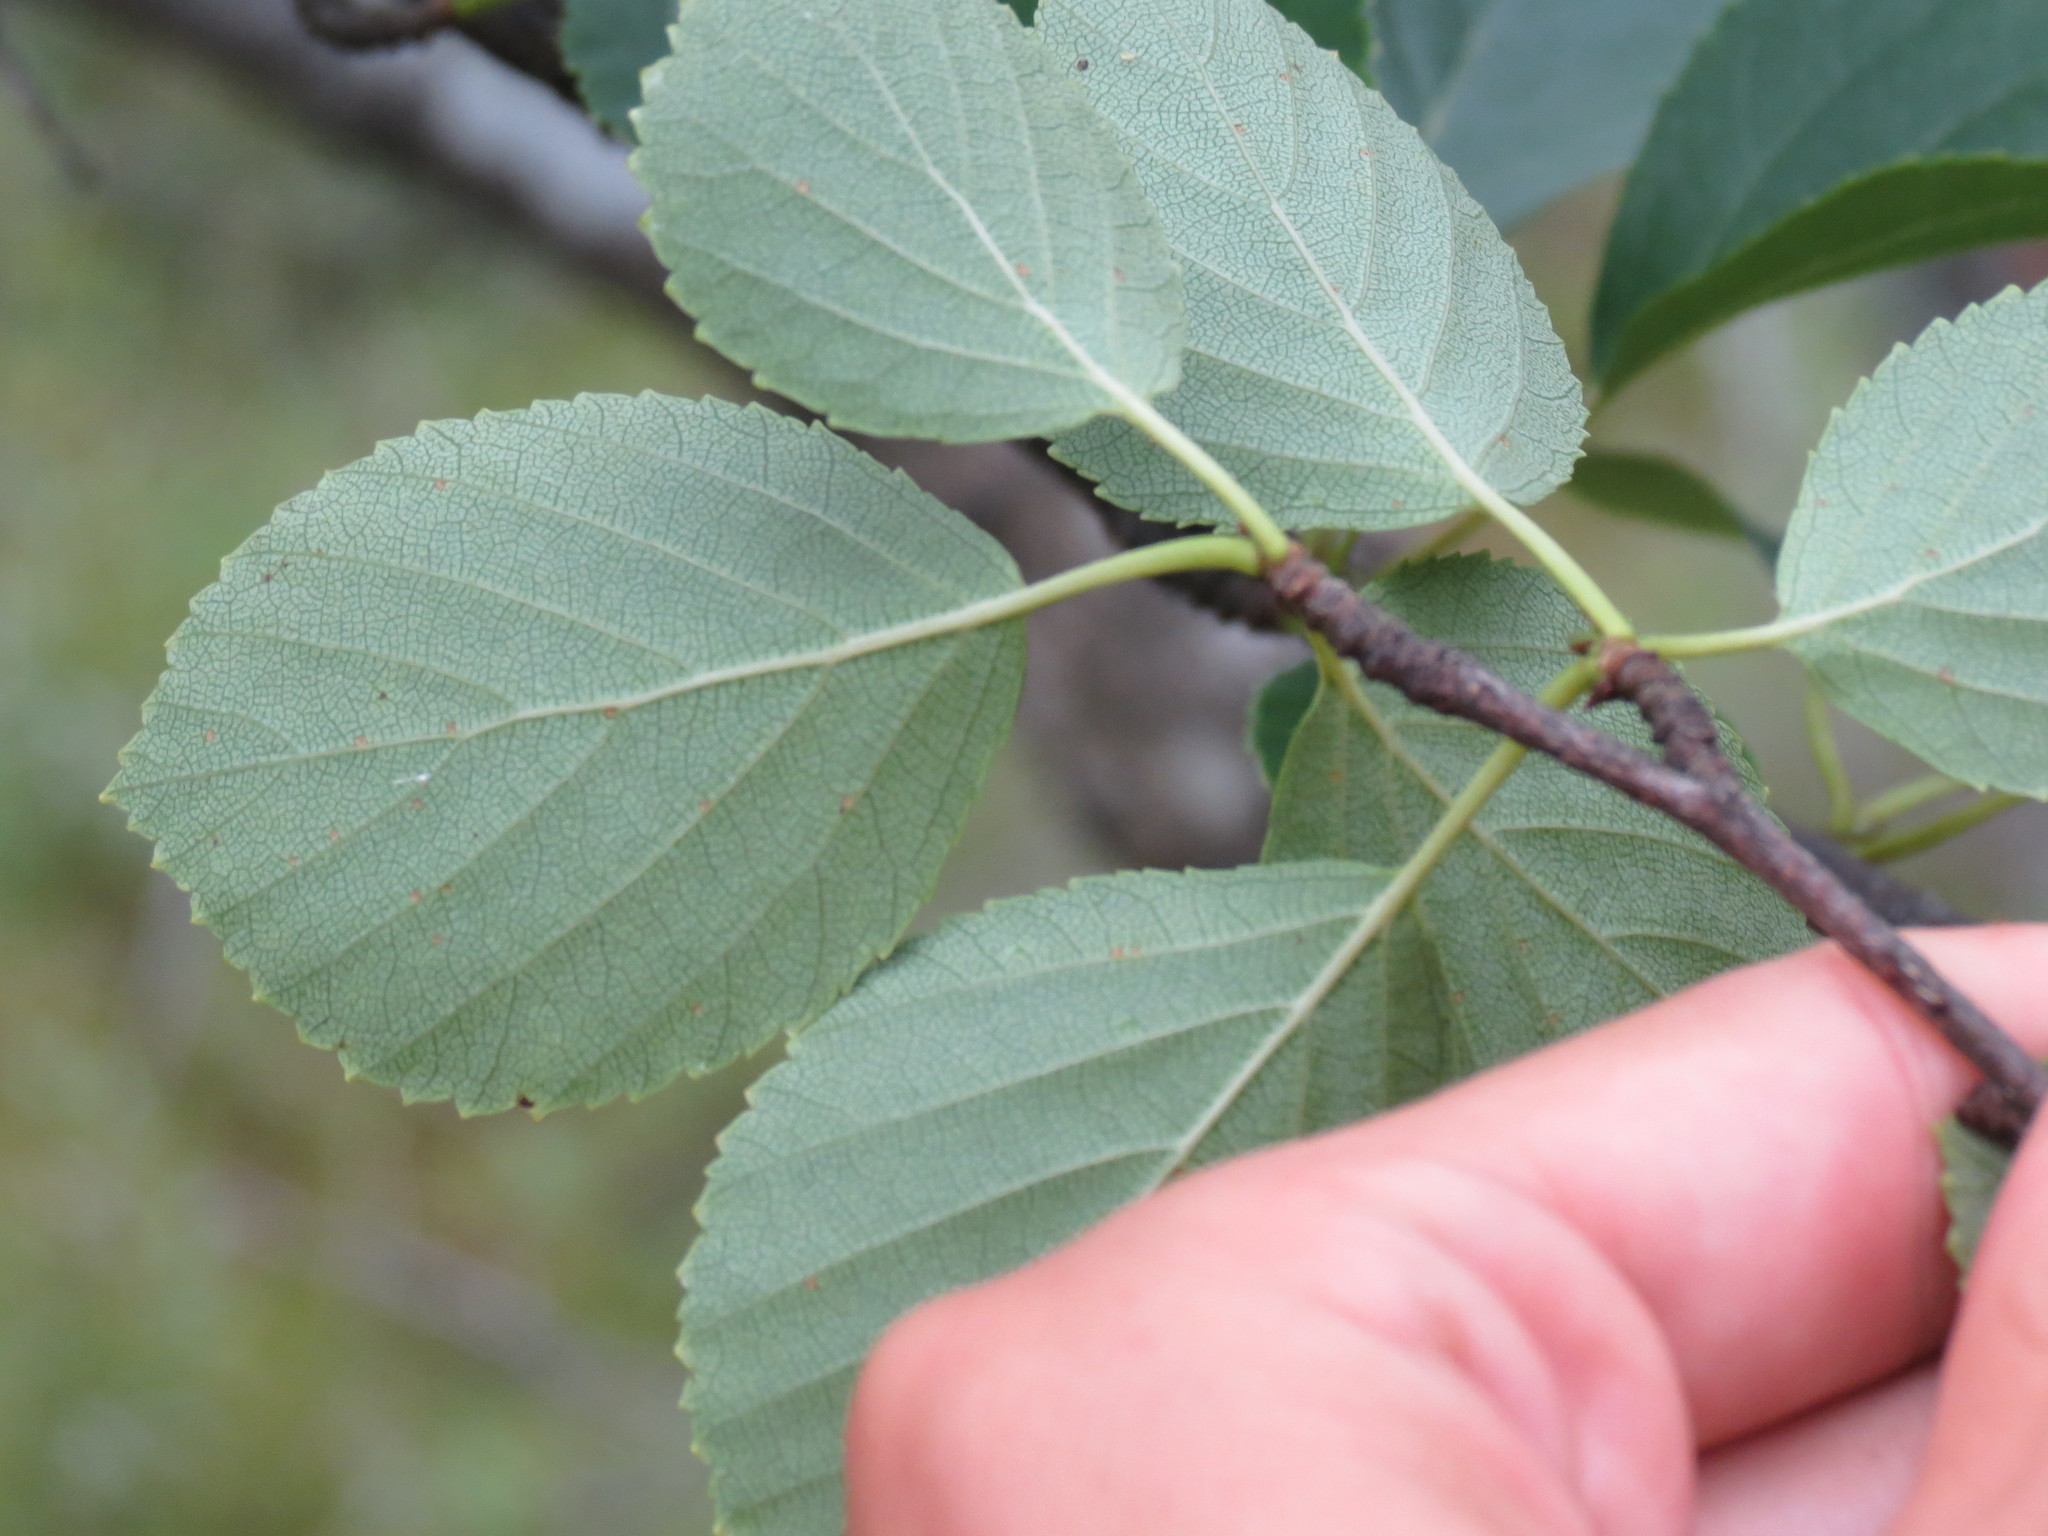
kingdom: Plantae
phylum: Tracheophyta
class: Magnoliopsida
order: Fagales
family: Betulaceae
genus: Betula
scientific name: Betula sandbergii
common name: Northern birch
